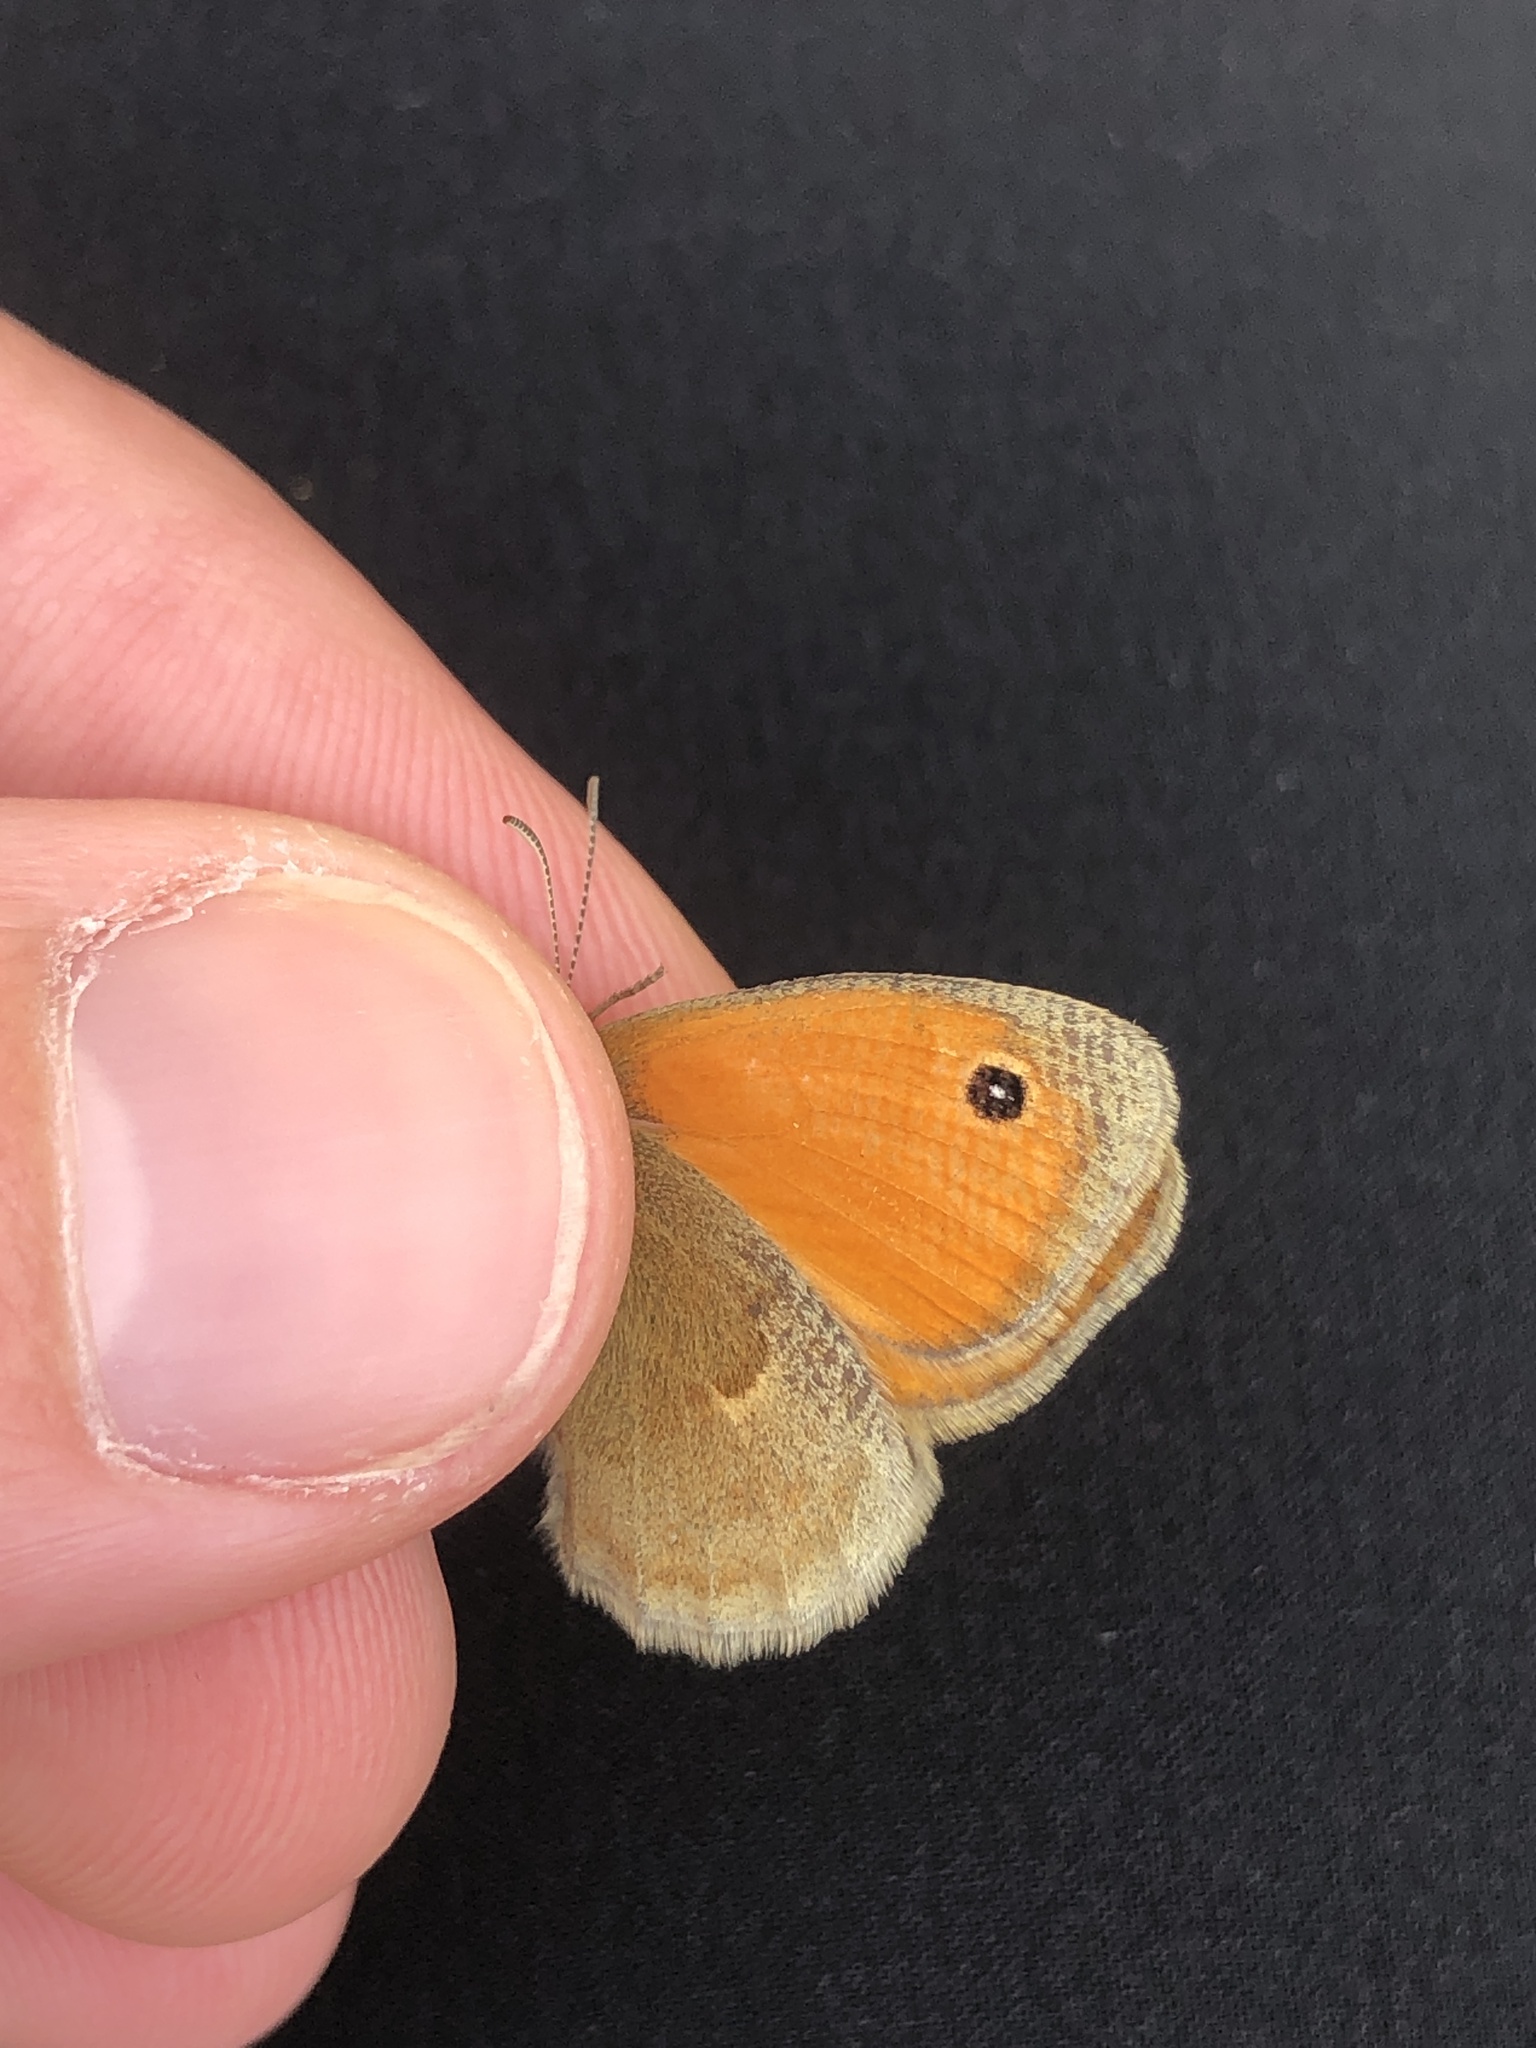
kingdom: Animalia
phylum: Arthropoda
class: Insecta
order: Lepidoptera
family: Nymphalidae
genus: Coenonympha
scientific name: Coenonympha pamphilus
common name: Small heath
